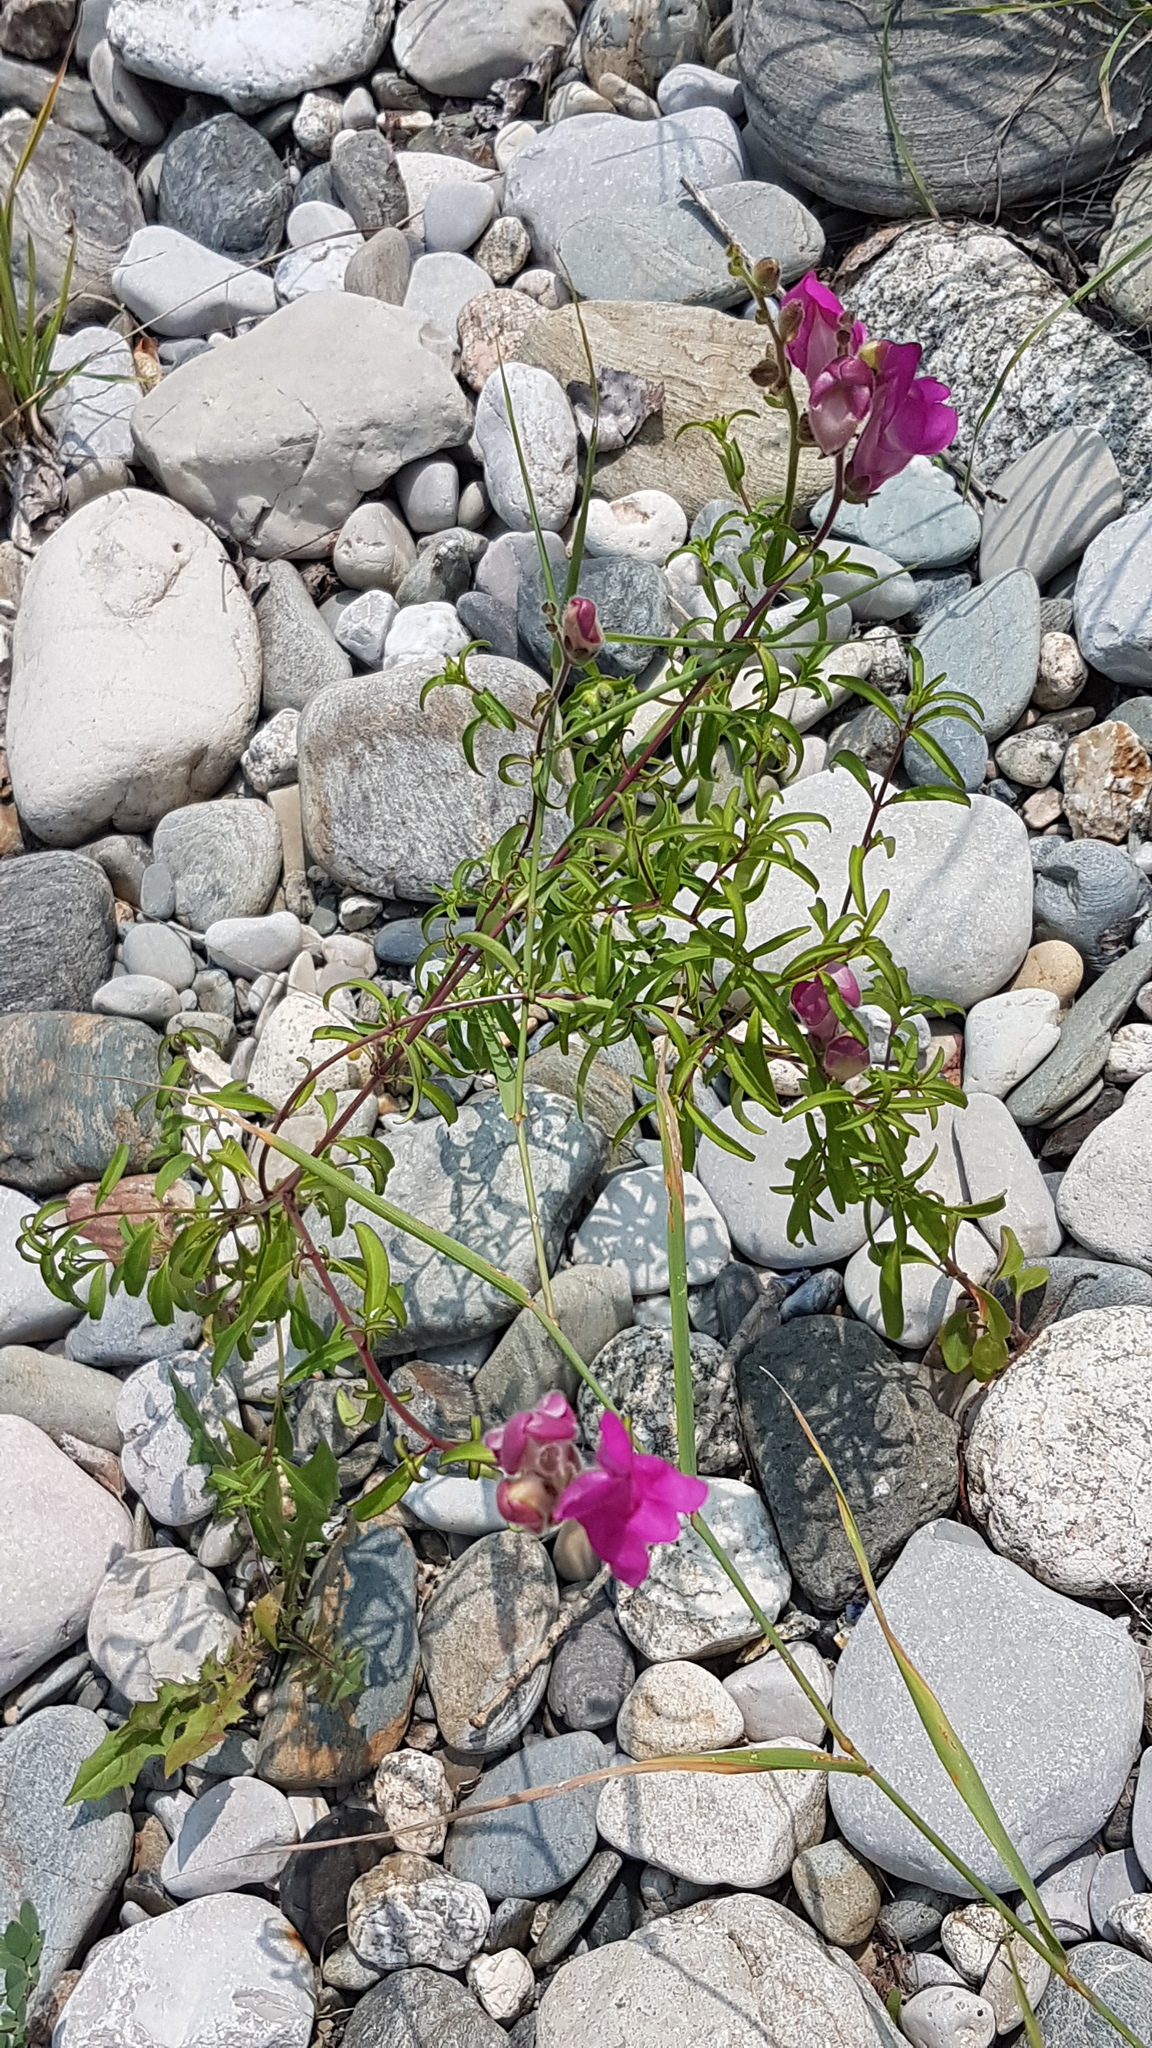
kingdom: Plantae
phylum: Tracheophyta
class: Magnoliopsida
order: Lamiales
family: Plantaginaceae
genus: Antirrhinum
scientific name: Antirrhinum majus
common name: Snapdragon
